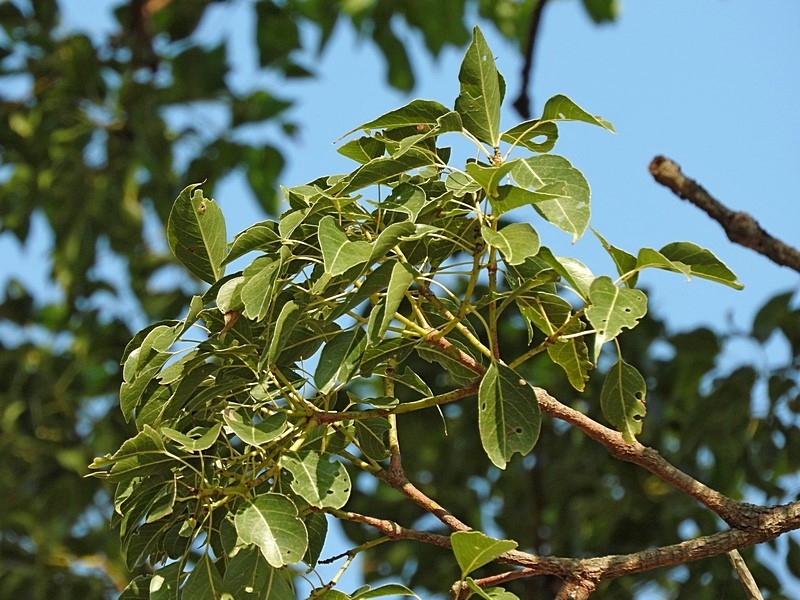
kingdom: Plantae
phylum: Tracheophyta
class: Magnoliopsida
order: Malvales
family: Malvaceae
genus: Brachychiton
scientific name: Brachychiton populneus
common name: Kurrajong
